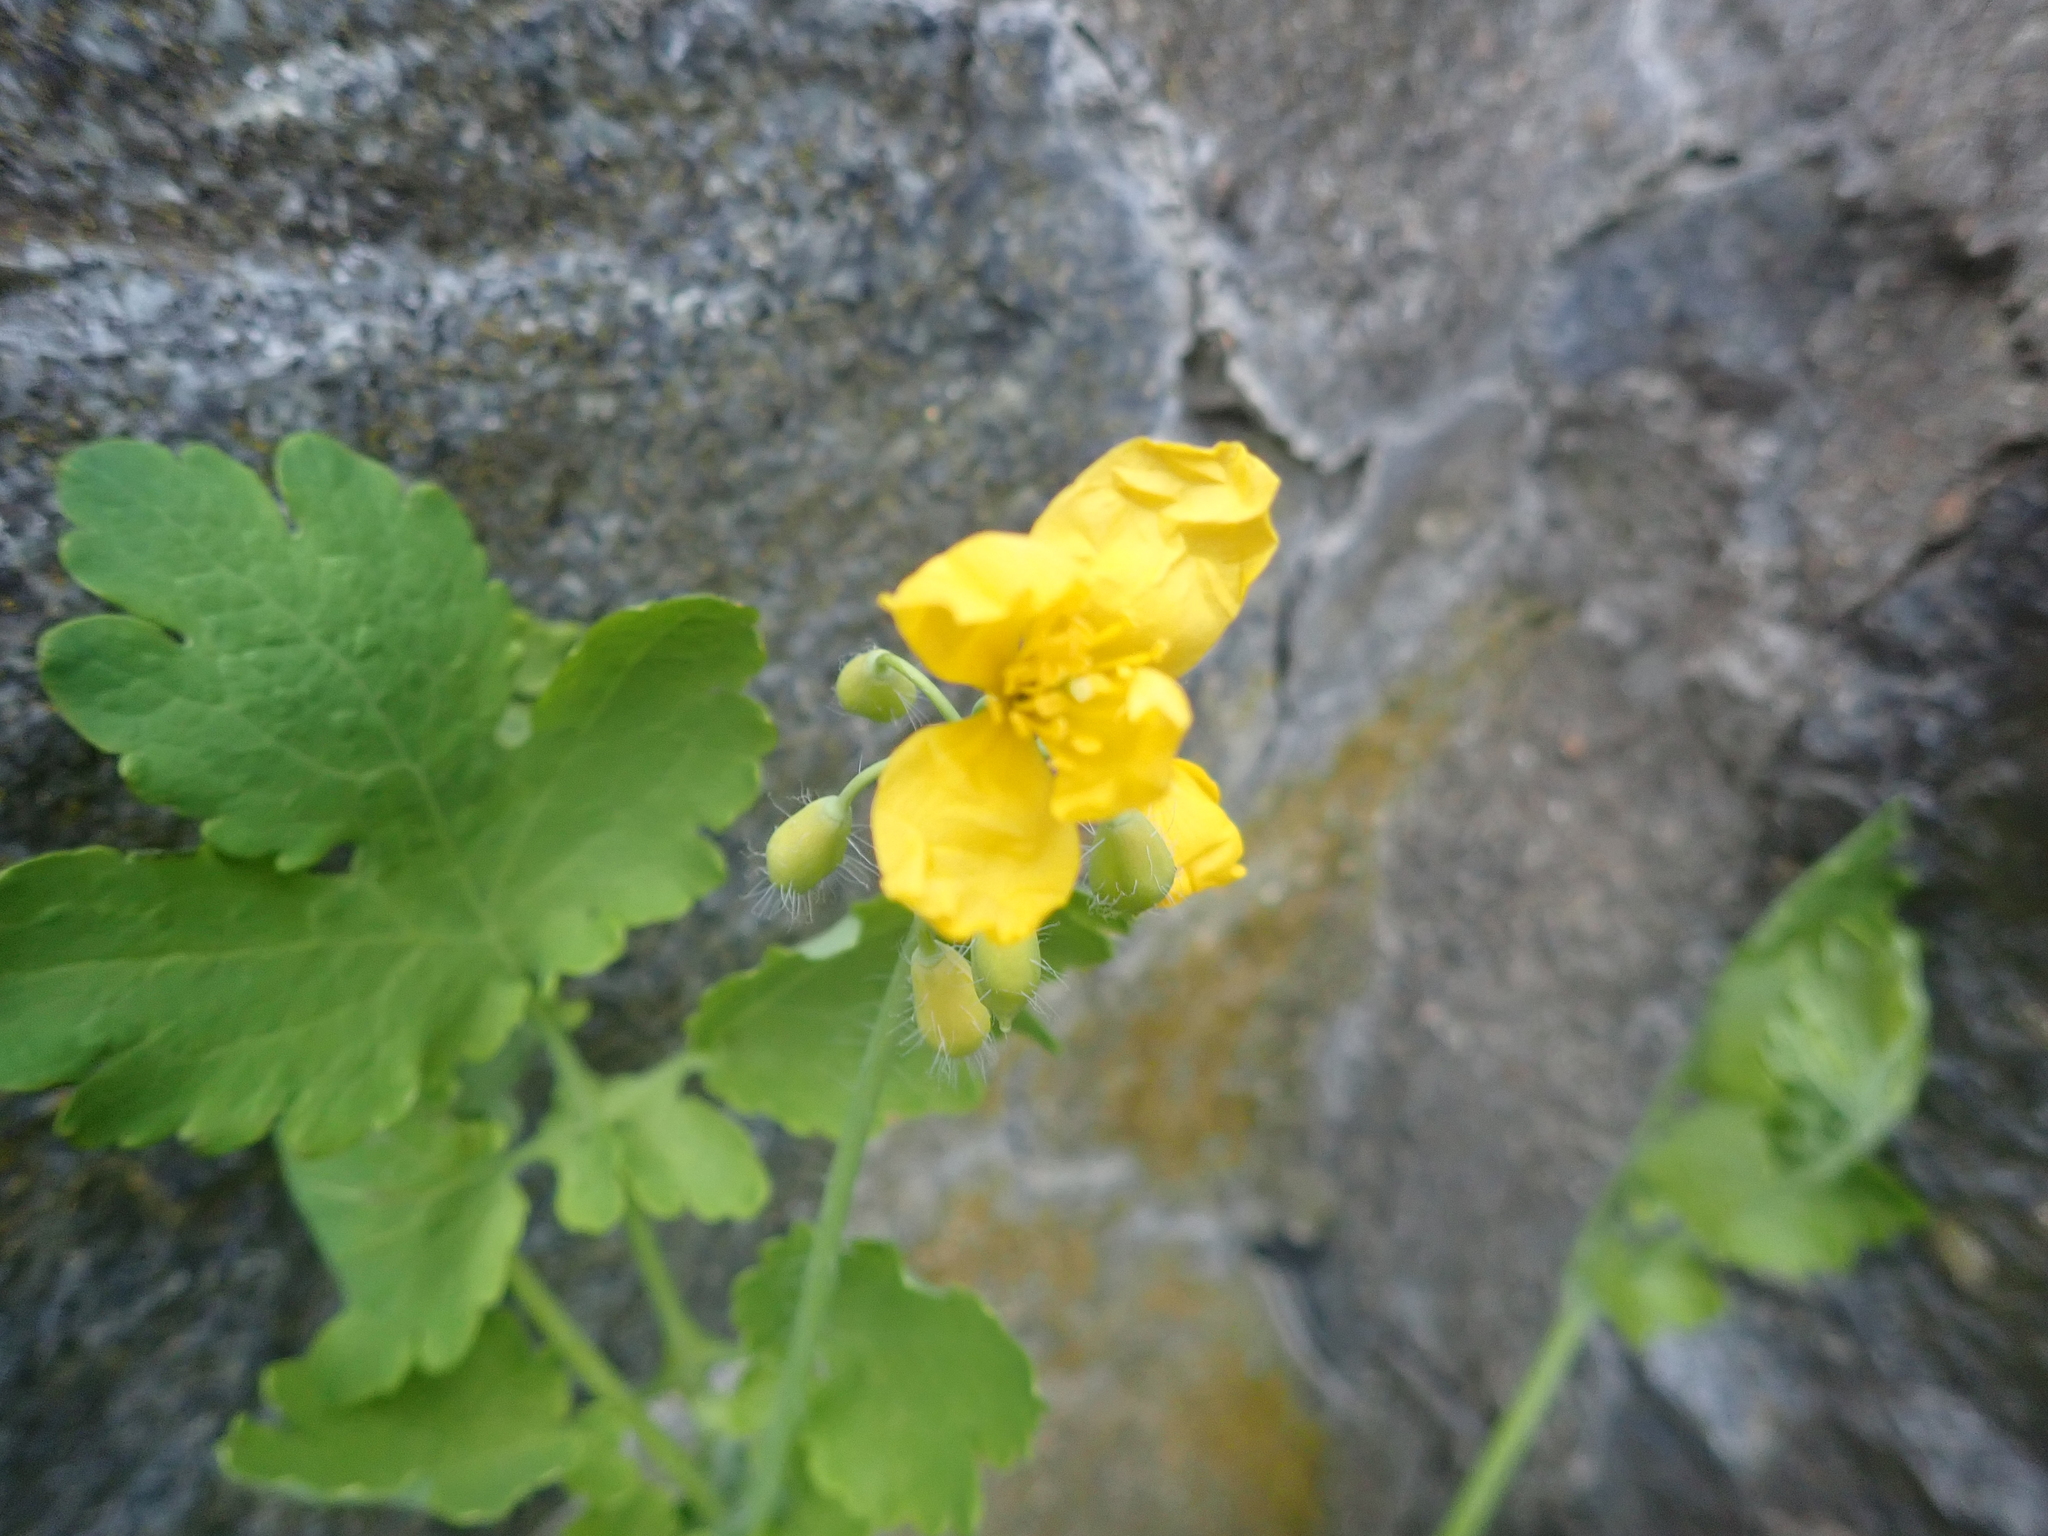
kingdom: Plantae
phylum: Tracheophyta
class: Magnoliopsida
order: Ranunculales
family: Papaveraceae
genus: Chelidonium
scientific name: Chelidonium majus
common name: Greater celandine
